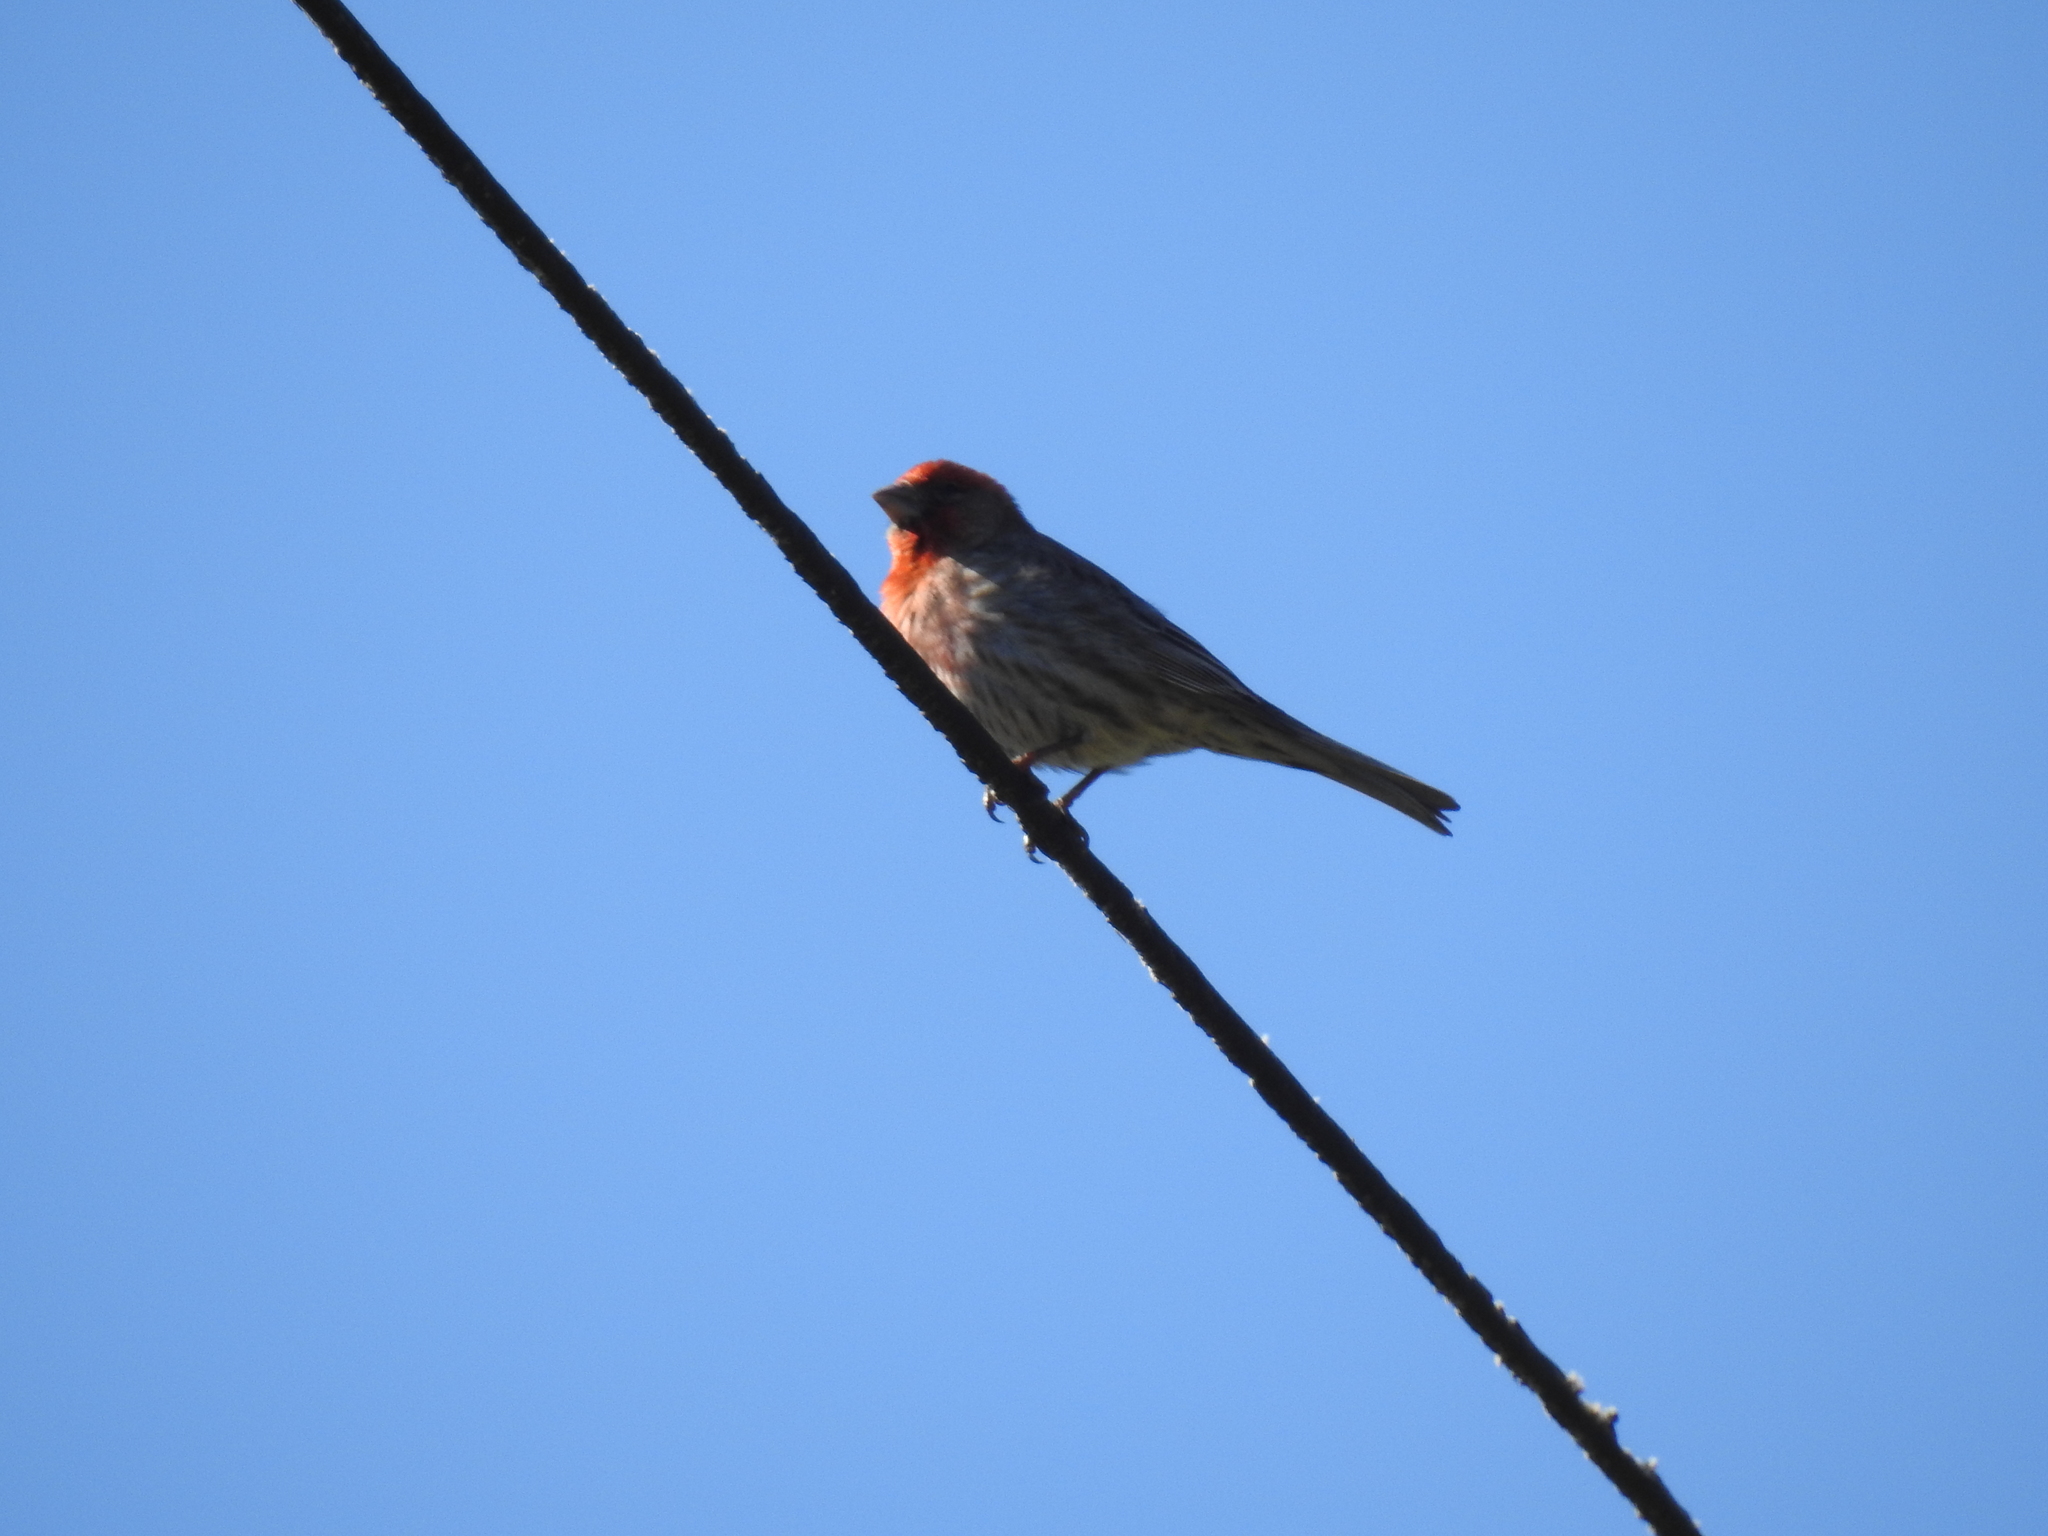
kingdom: Animalia
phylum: Chordata
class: Aves
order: Passeriformes
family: Fringillidae
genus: Haemorhous
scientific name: Haemorhous mexicanus
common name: House finch
